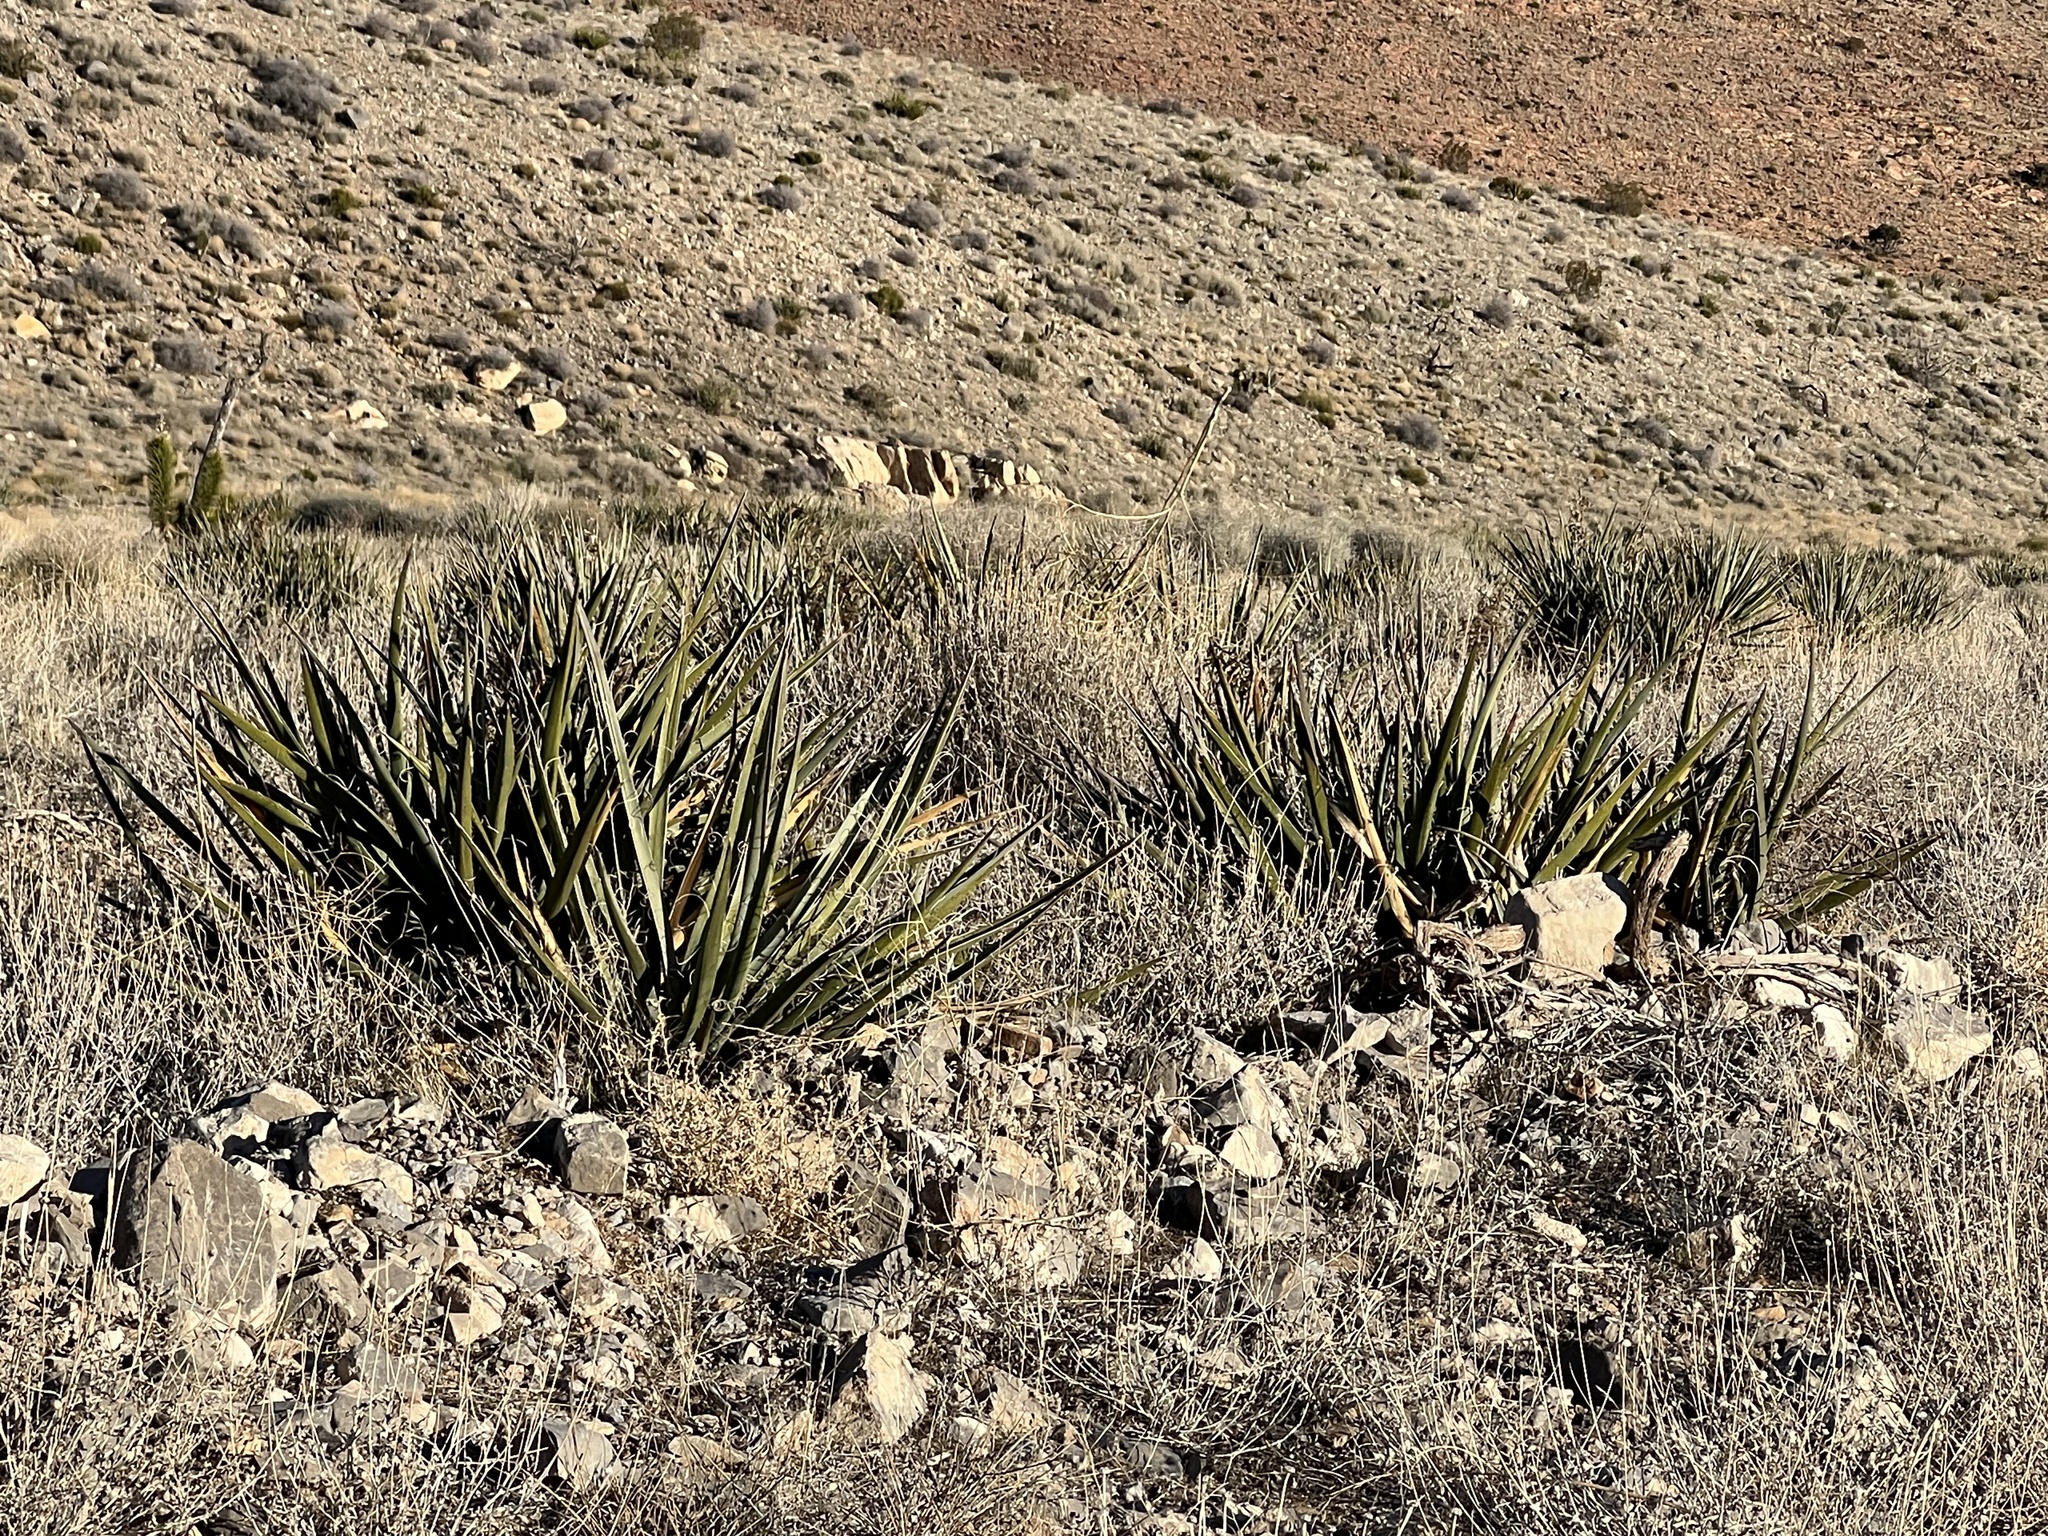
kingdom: Plantae
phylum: Tracheophyta
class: Liliopsida
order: Asparagales
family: Asparagaceae
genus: Yucca
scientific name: Yucca baccata
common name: Banana yucca
